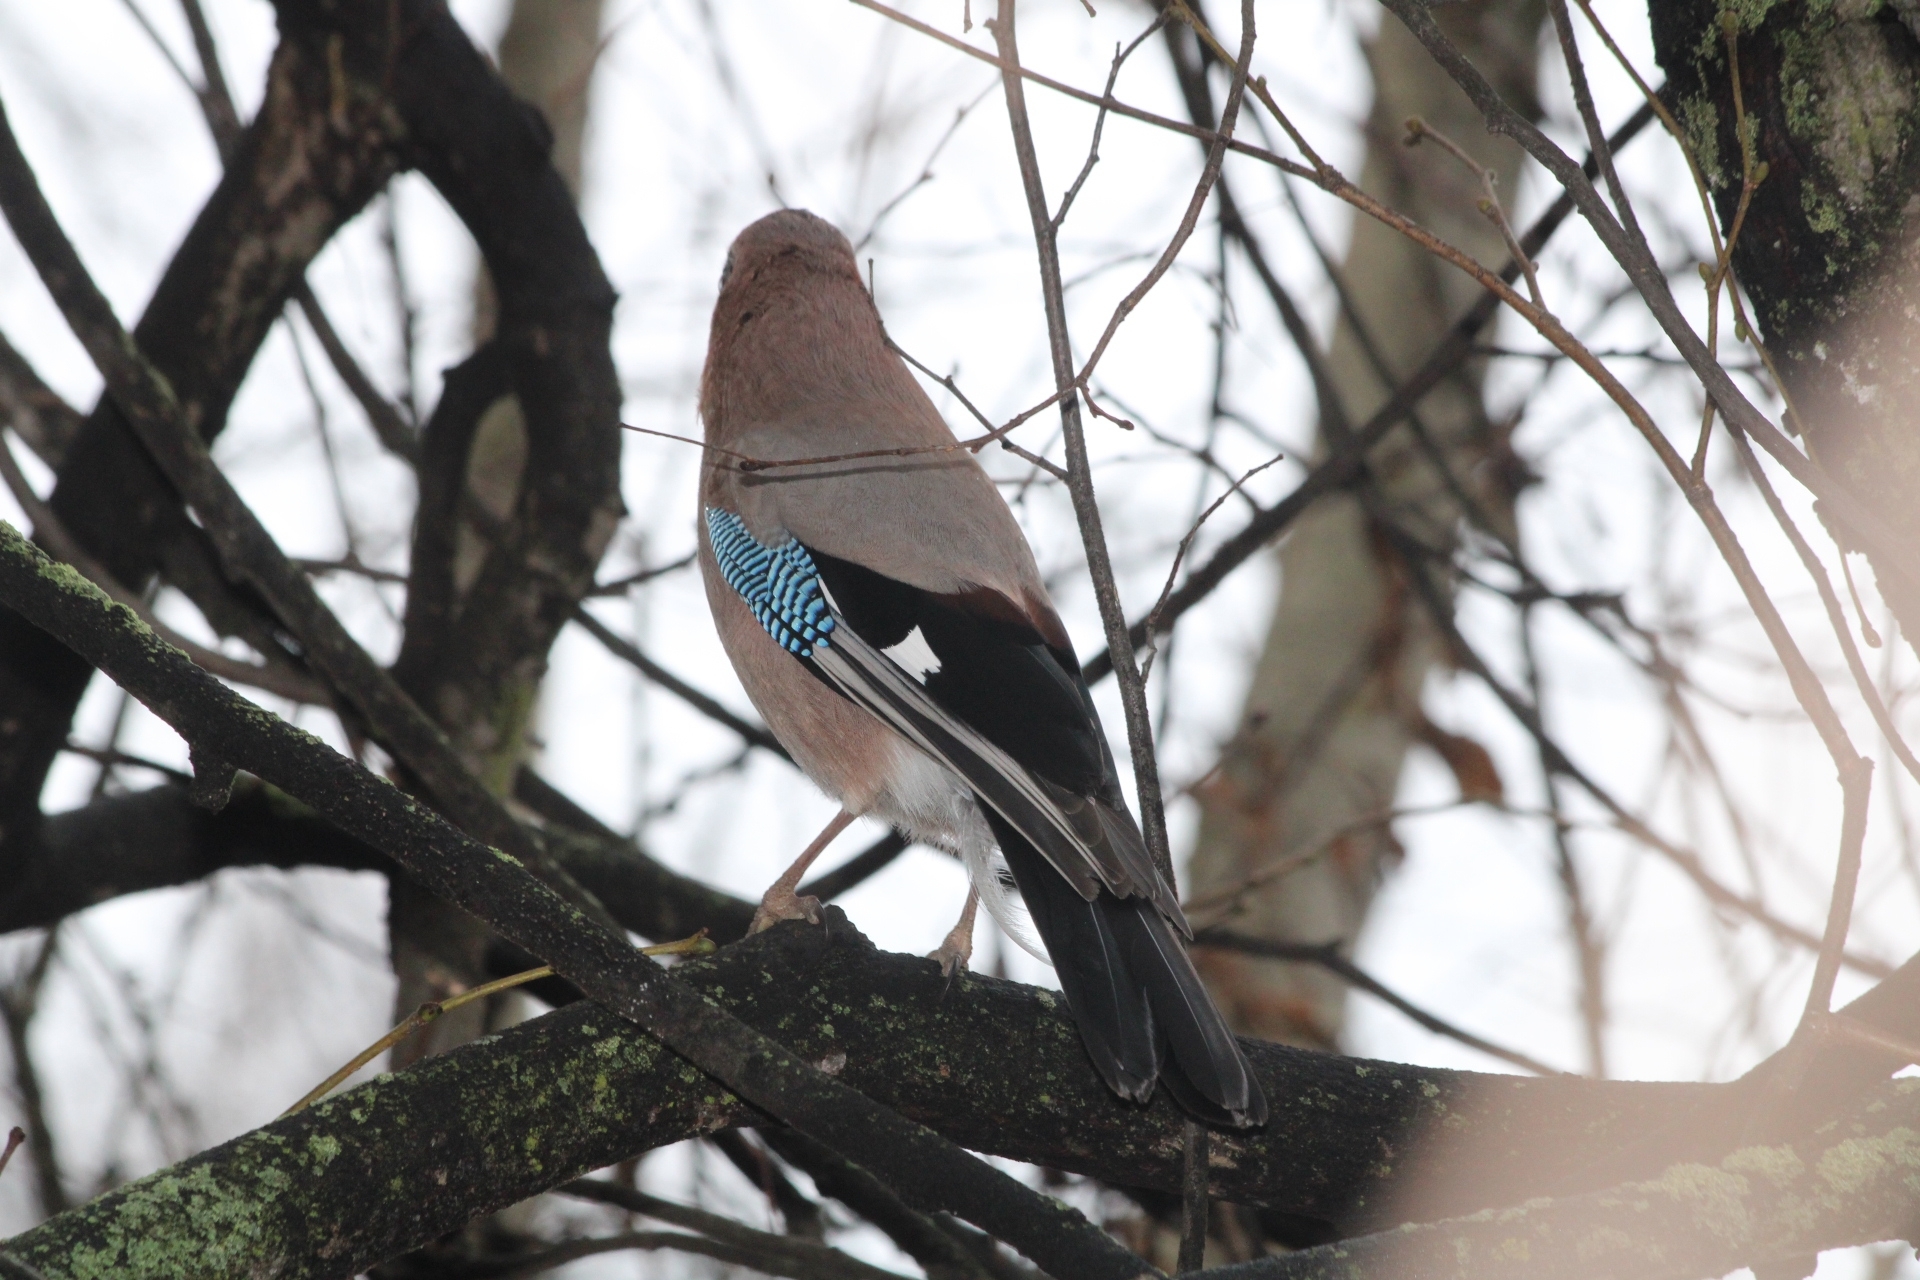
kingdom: Animalia
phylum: Chordata
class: Aves
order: Passeriformes
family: Corvidae
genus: Garrulus
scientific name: Garrulus glandarius
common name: Eurasian jay
